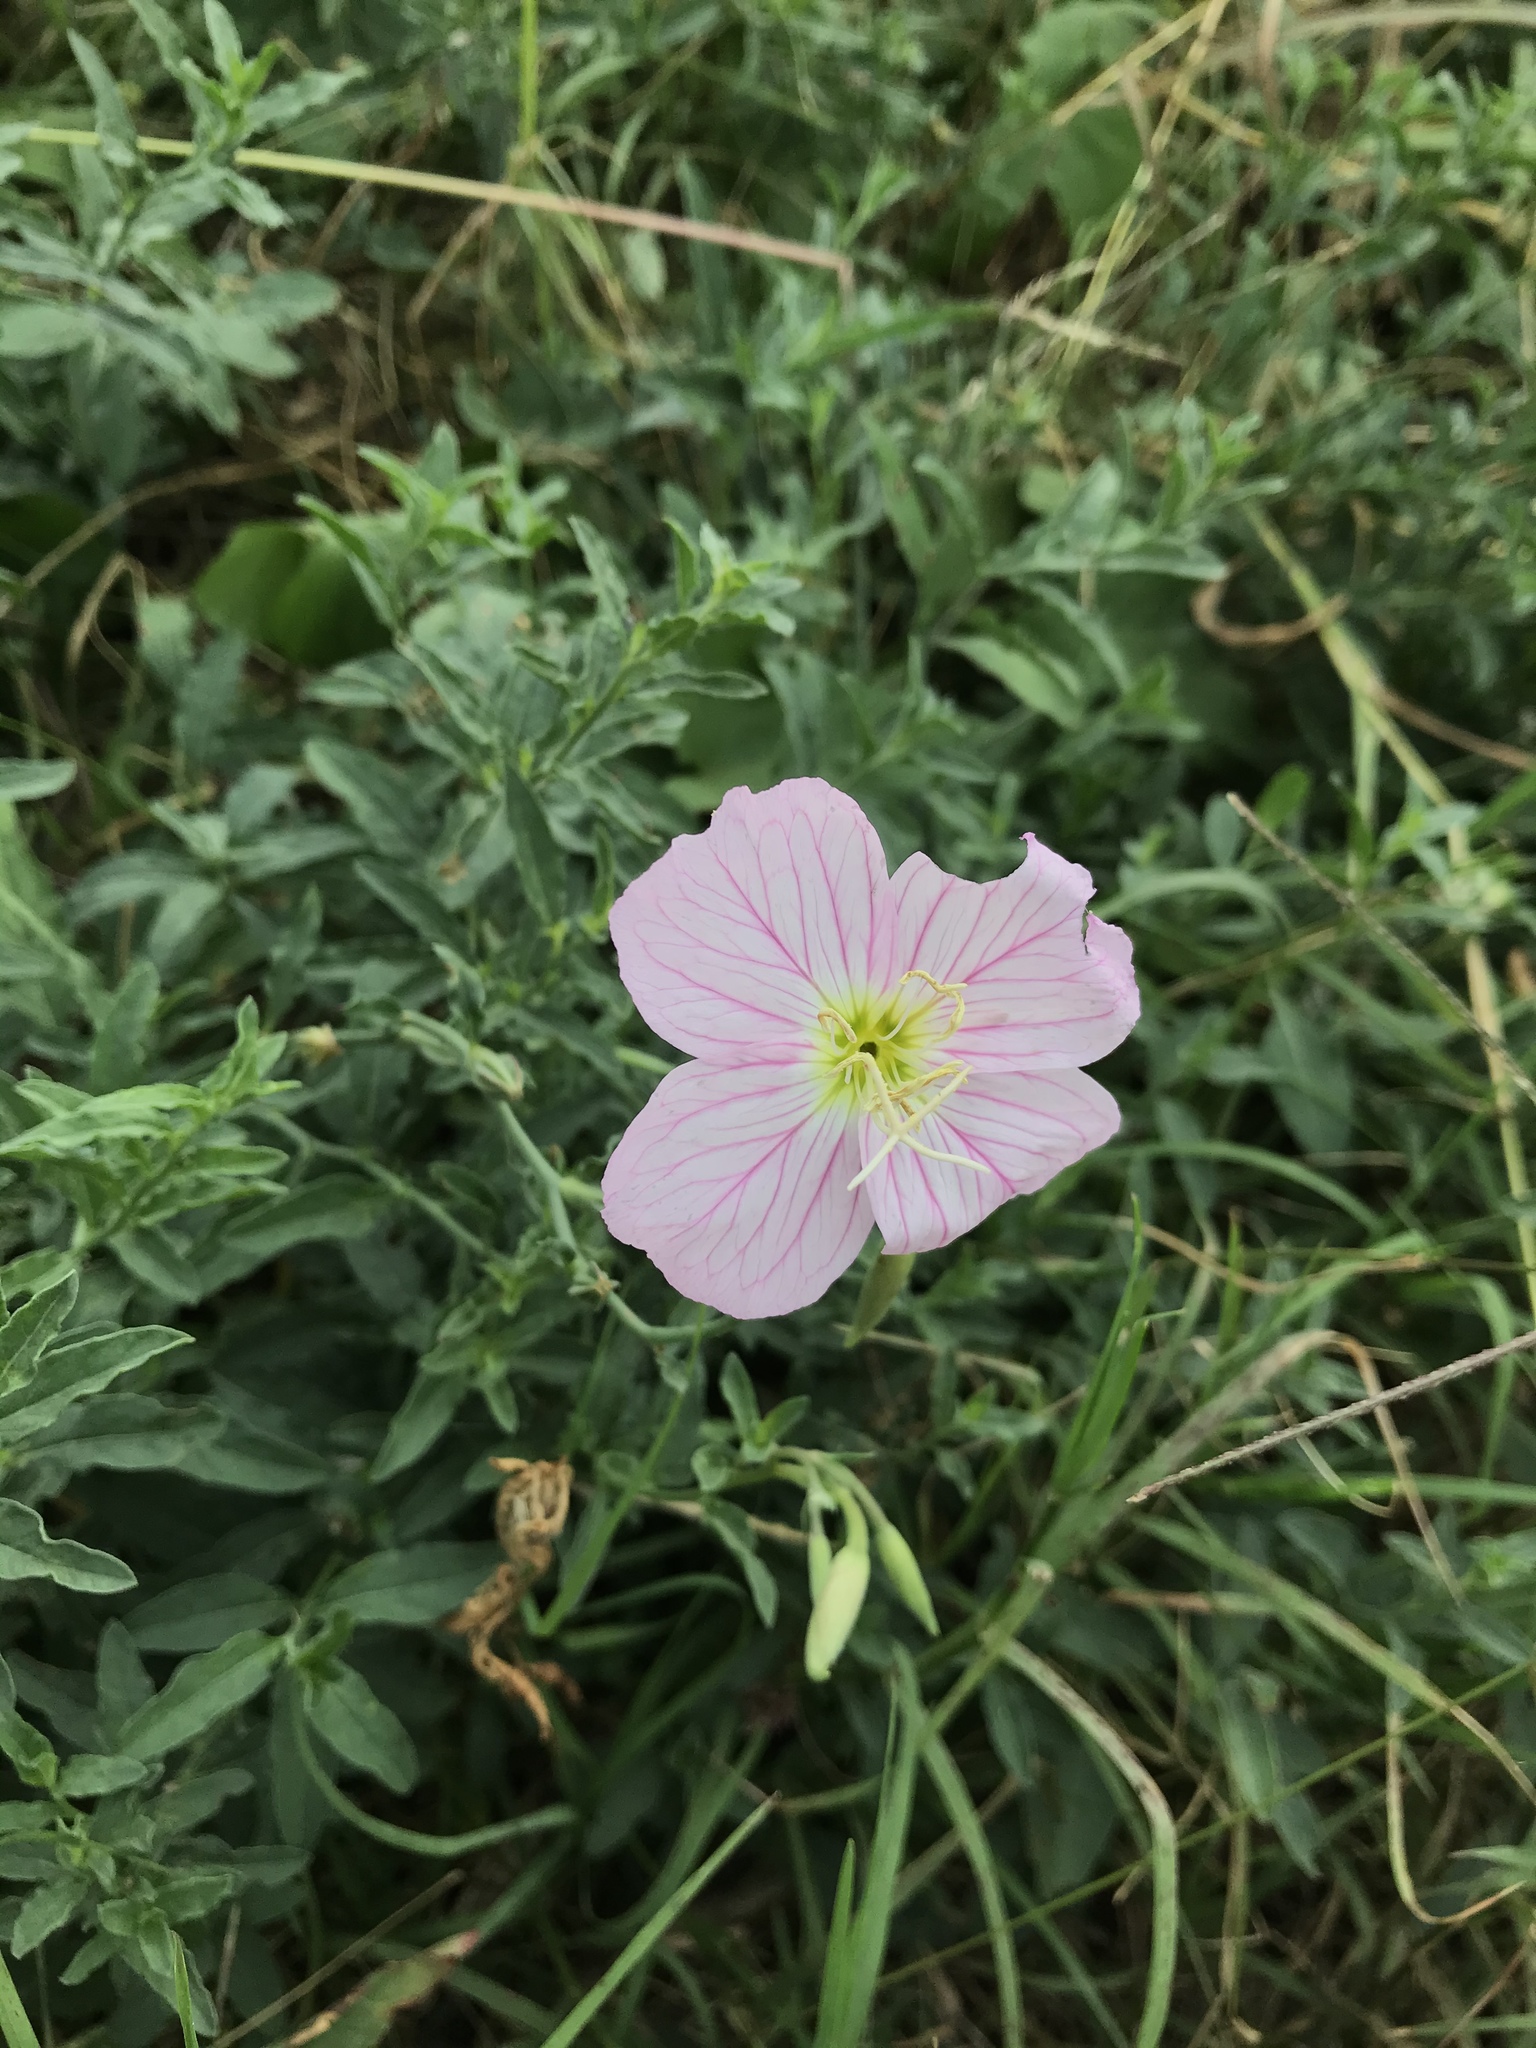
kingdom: Plantae
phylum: Tracheophyta
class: Magnoliopsida
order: Myrtales
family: Onagraceae
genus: Oenothera
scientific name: Oenothera speciosa
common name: White evening-primrose
